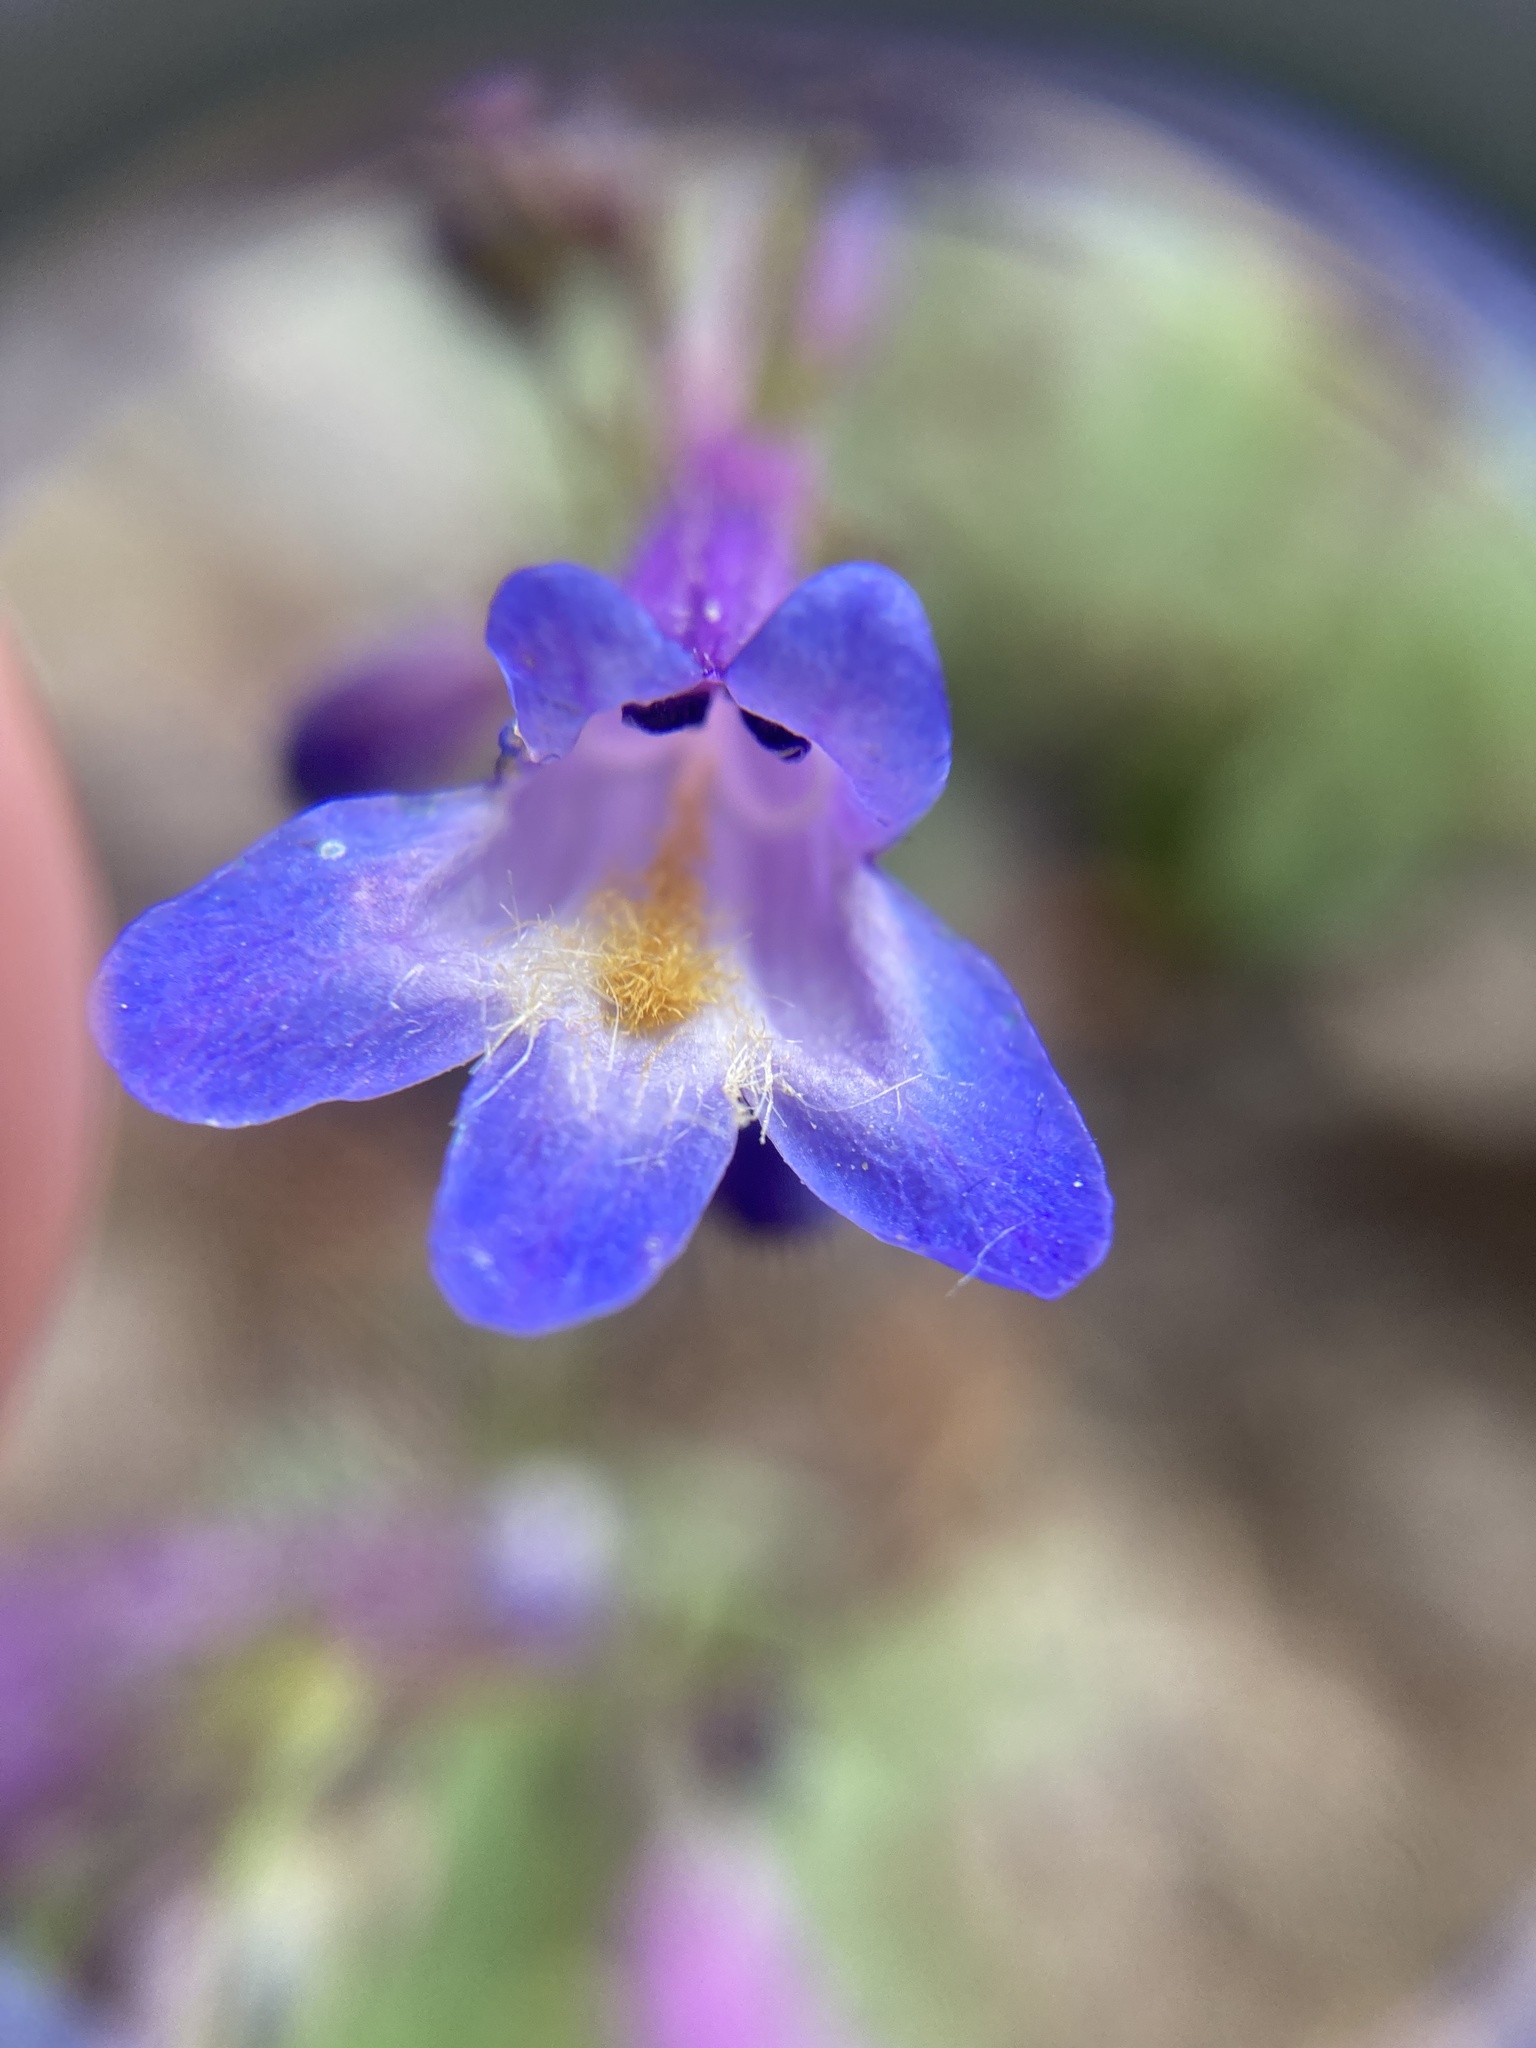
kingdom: Plantae
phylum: Tracheophyta
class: Magnoliopsida
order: Lamiales
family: Plantaginaceae
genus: Penstemon
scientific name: Penstemon pseudoparvus
